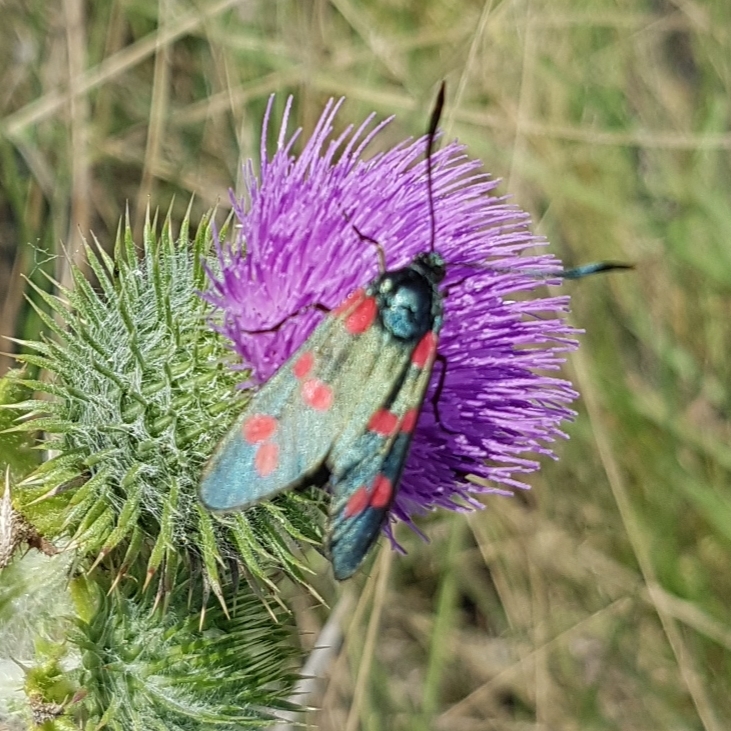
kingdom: Animalia
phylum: Arthropoda
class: Insecta
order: Lepidoptera
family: Zygaenidae
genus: Zygaena
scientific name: Zygaena filipendulae
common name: Six-spot burnet
